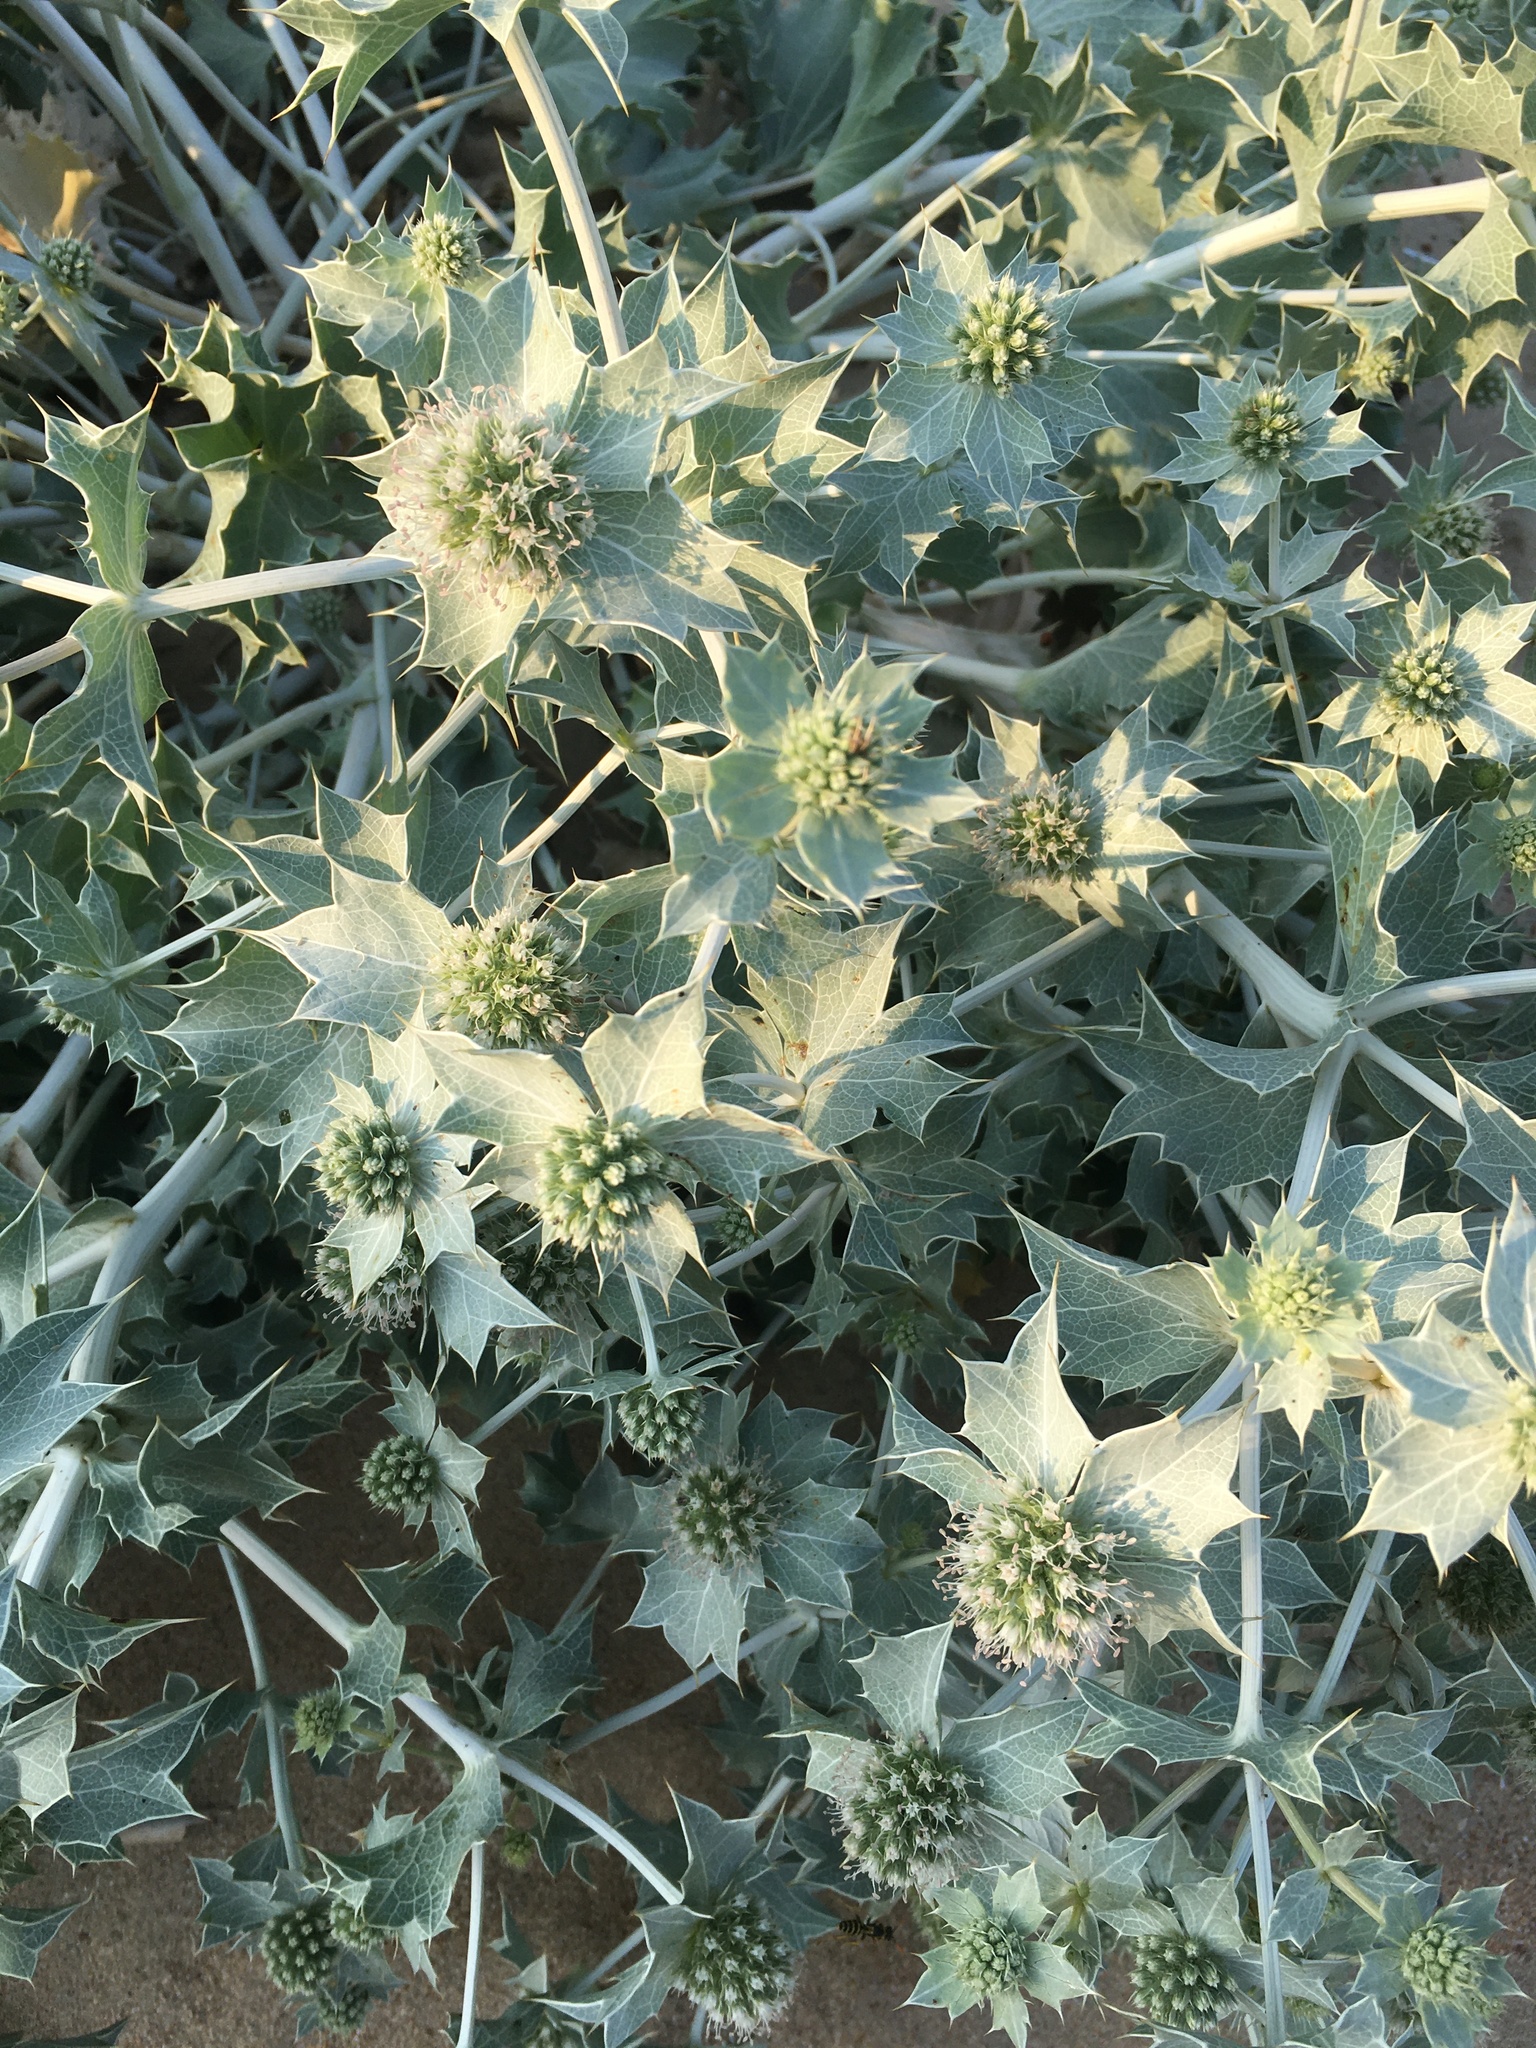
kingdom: Plantae
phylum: Tracheophyta
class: Magnoliopsida
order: Apiales
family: Apiaceae
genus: Eryngium
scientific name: Eryngium maritimum
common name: Sea-holly
